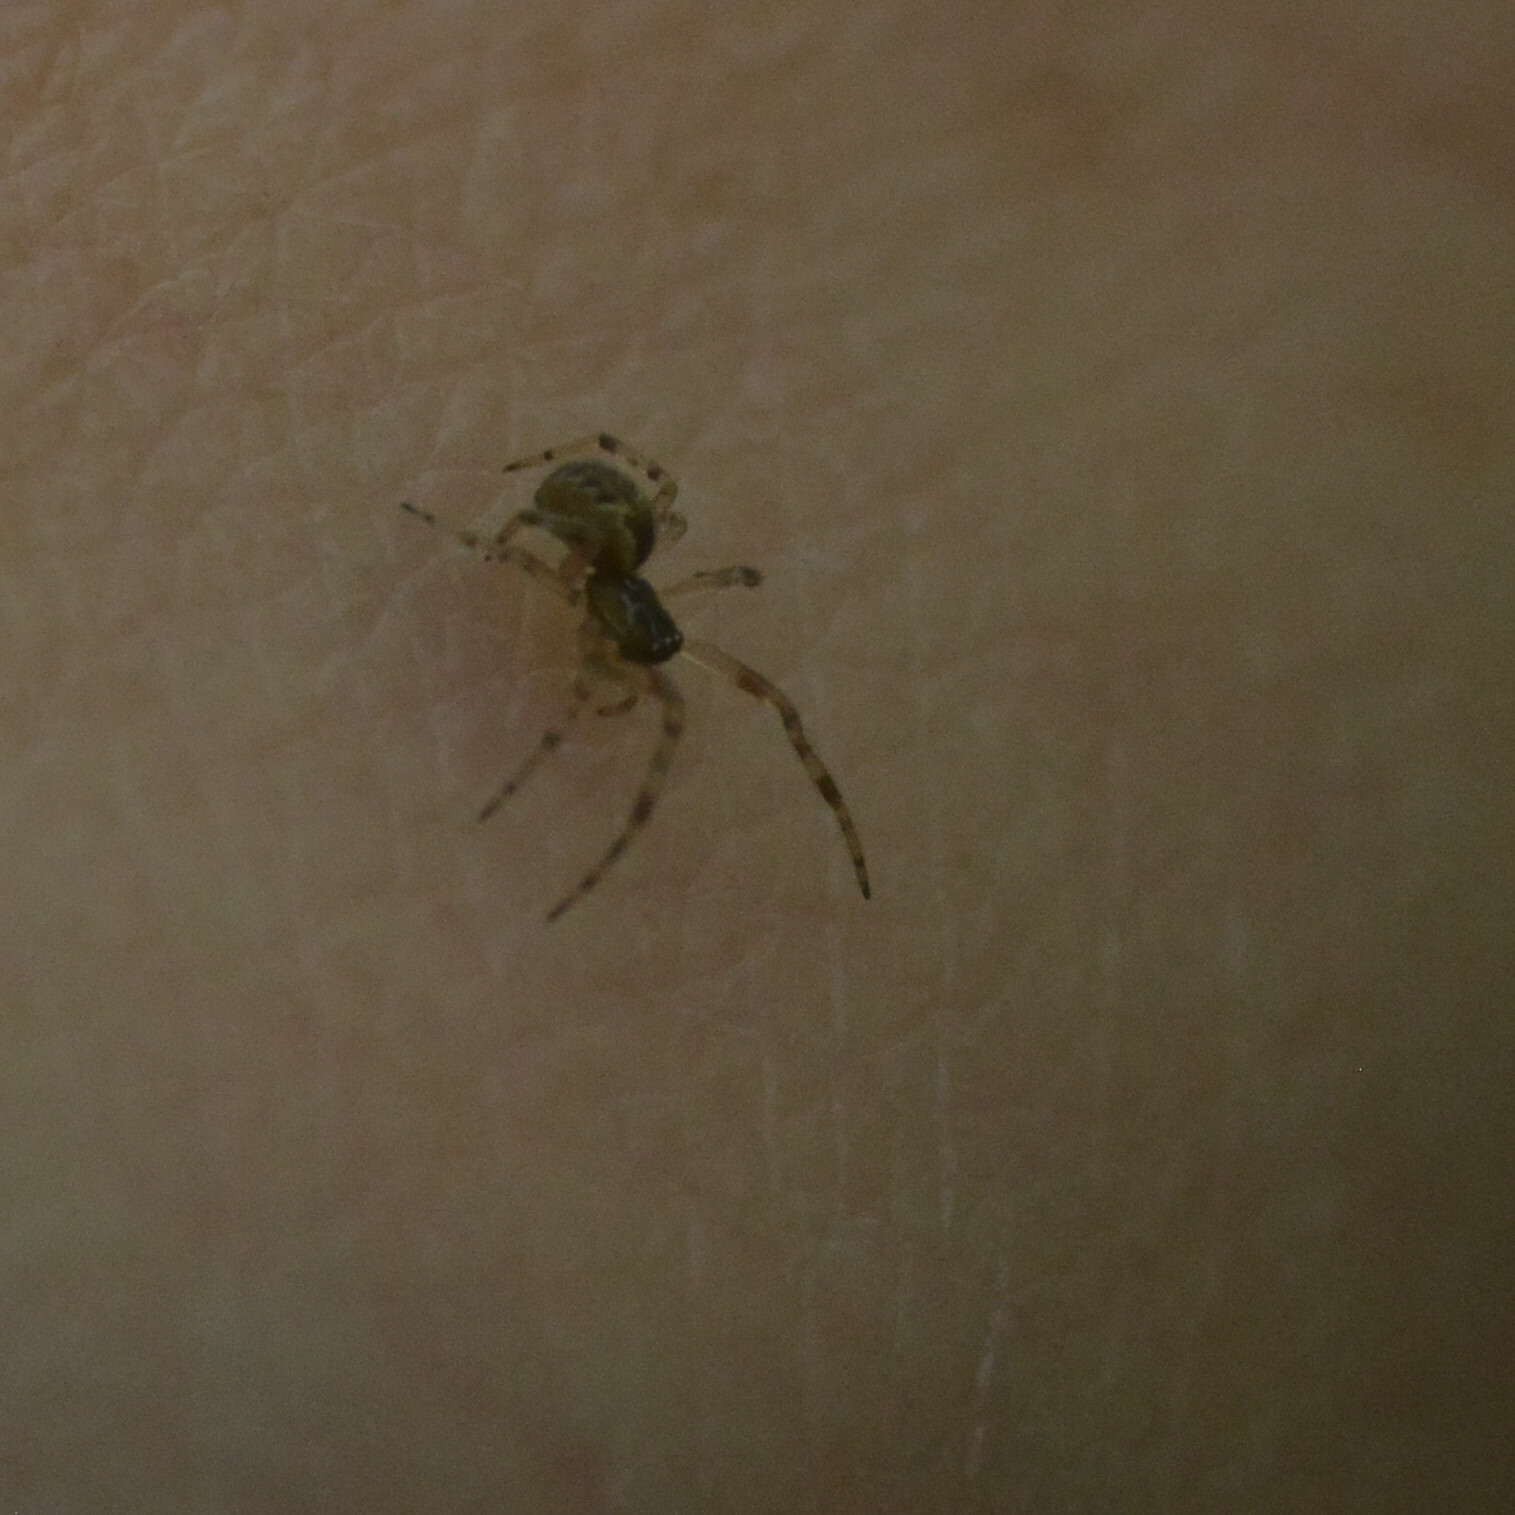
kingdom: Animalia
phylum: Arthropoda
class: Arachnida
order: Araneae
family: Theridiidae
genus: Anelosimus
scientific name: Anelosimus vittatus
